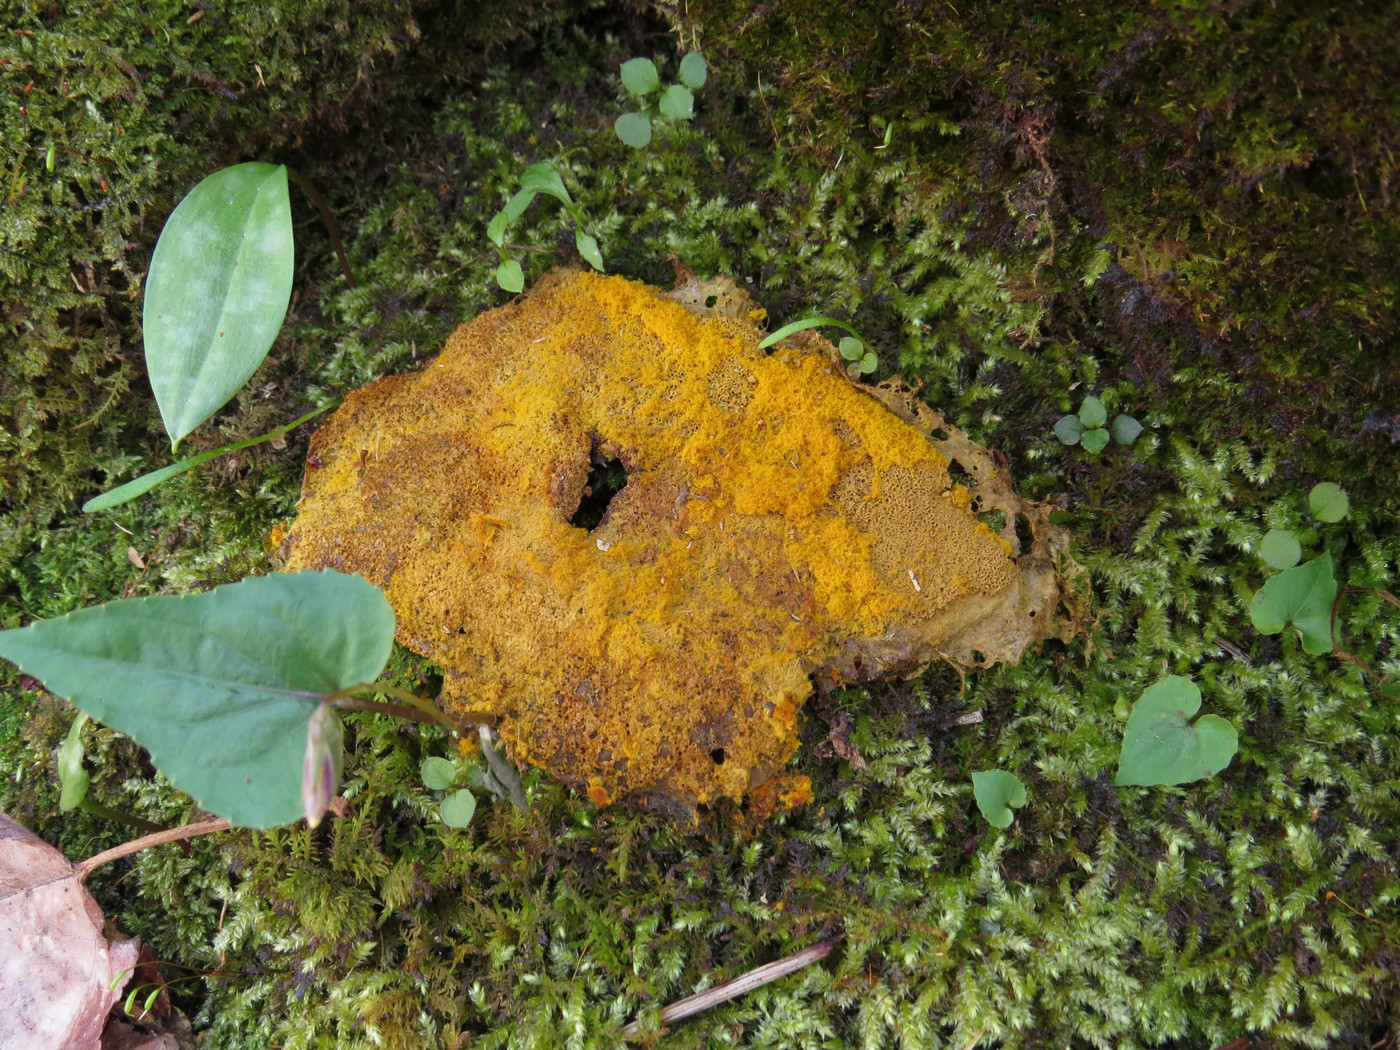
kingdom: Protozoa
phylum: Mycetozoa
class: Myxomycetes
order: Physarales
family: Physaraceae
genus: Fuligo
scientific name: Fuligo septica
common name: Dog vomit slime mold
